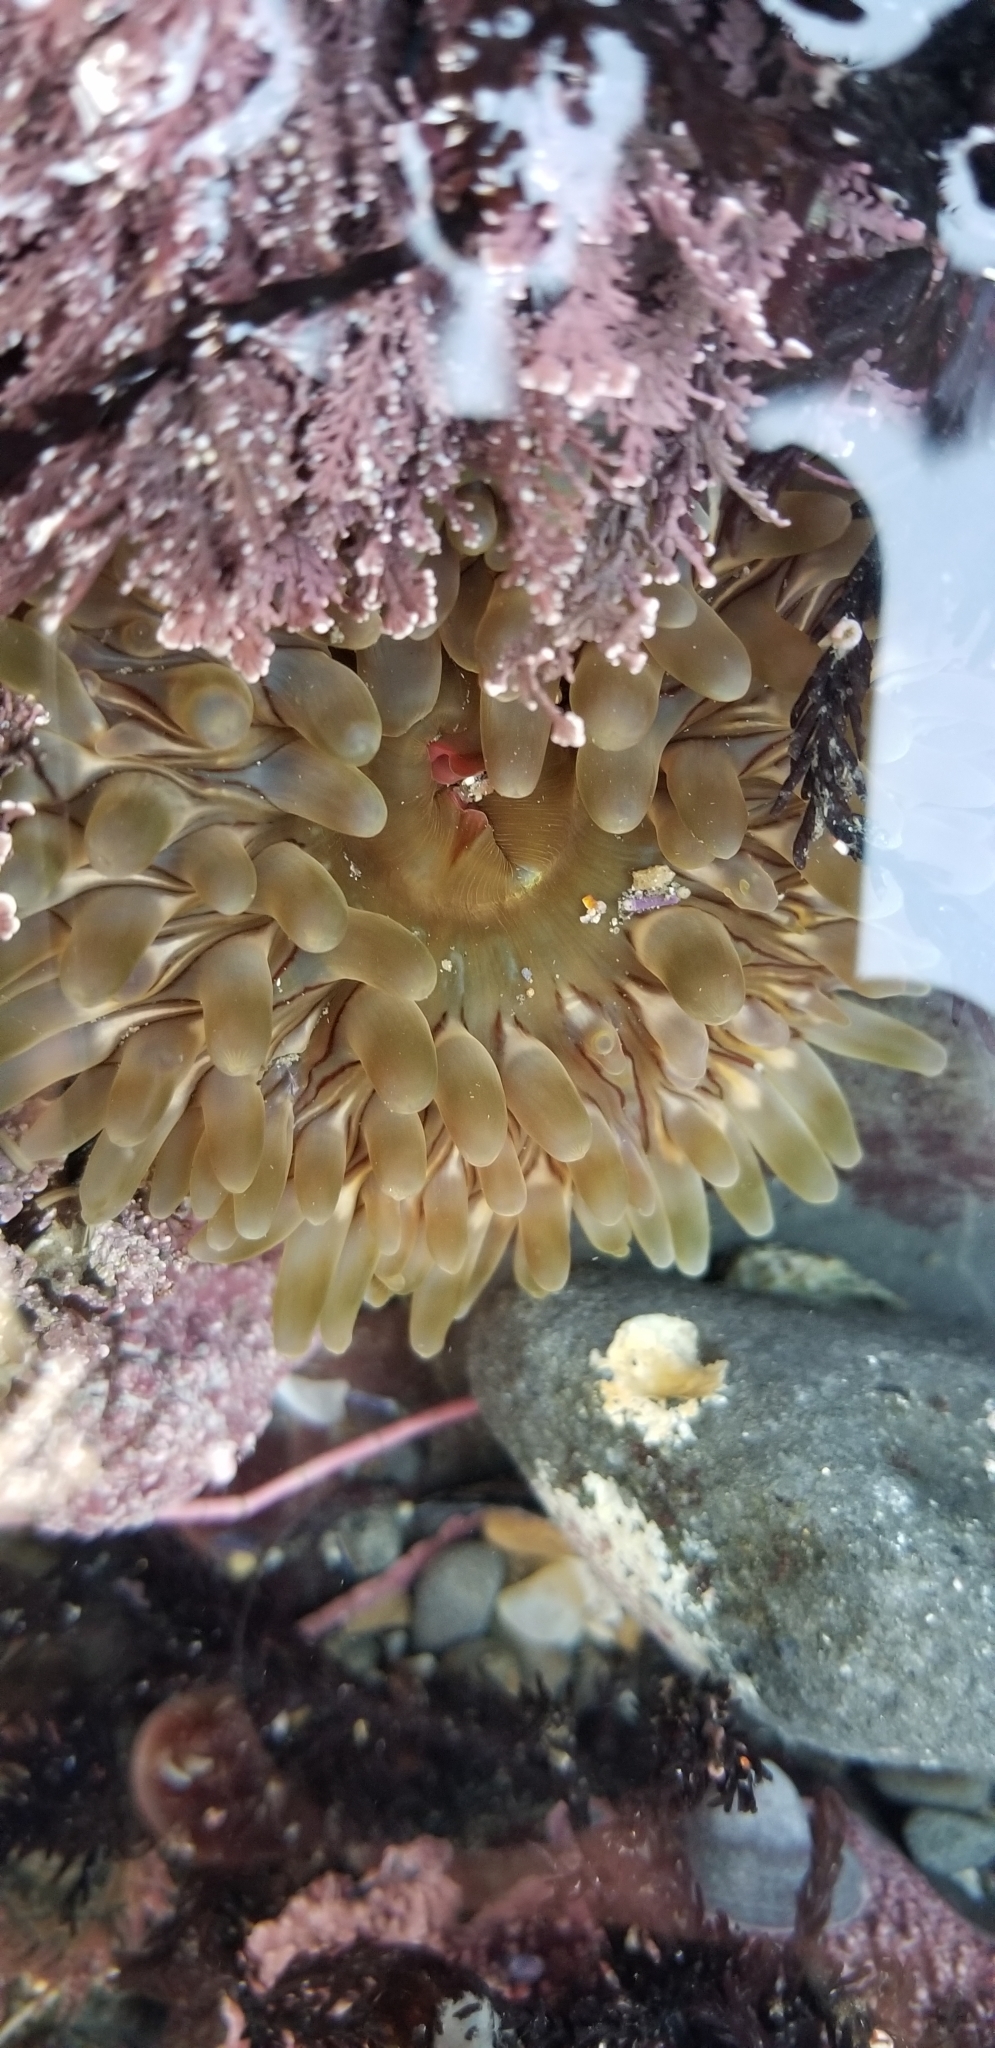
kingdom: Animalia
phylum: Cnidaria
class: Anthozoa
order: Actiniaria
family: Actiniidae
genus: Urticina
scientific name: Urticina clandestina
